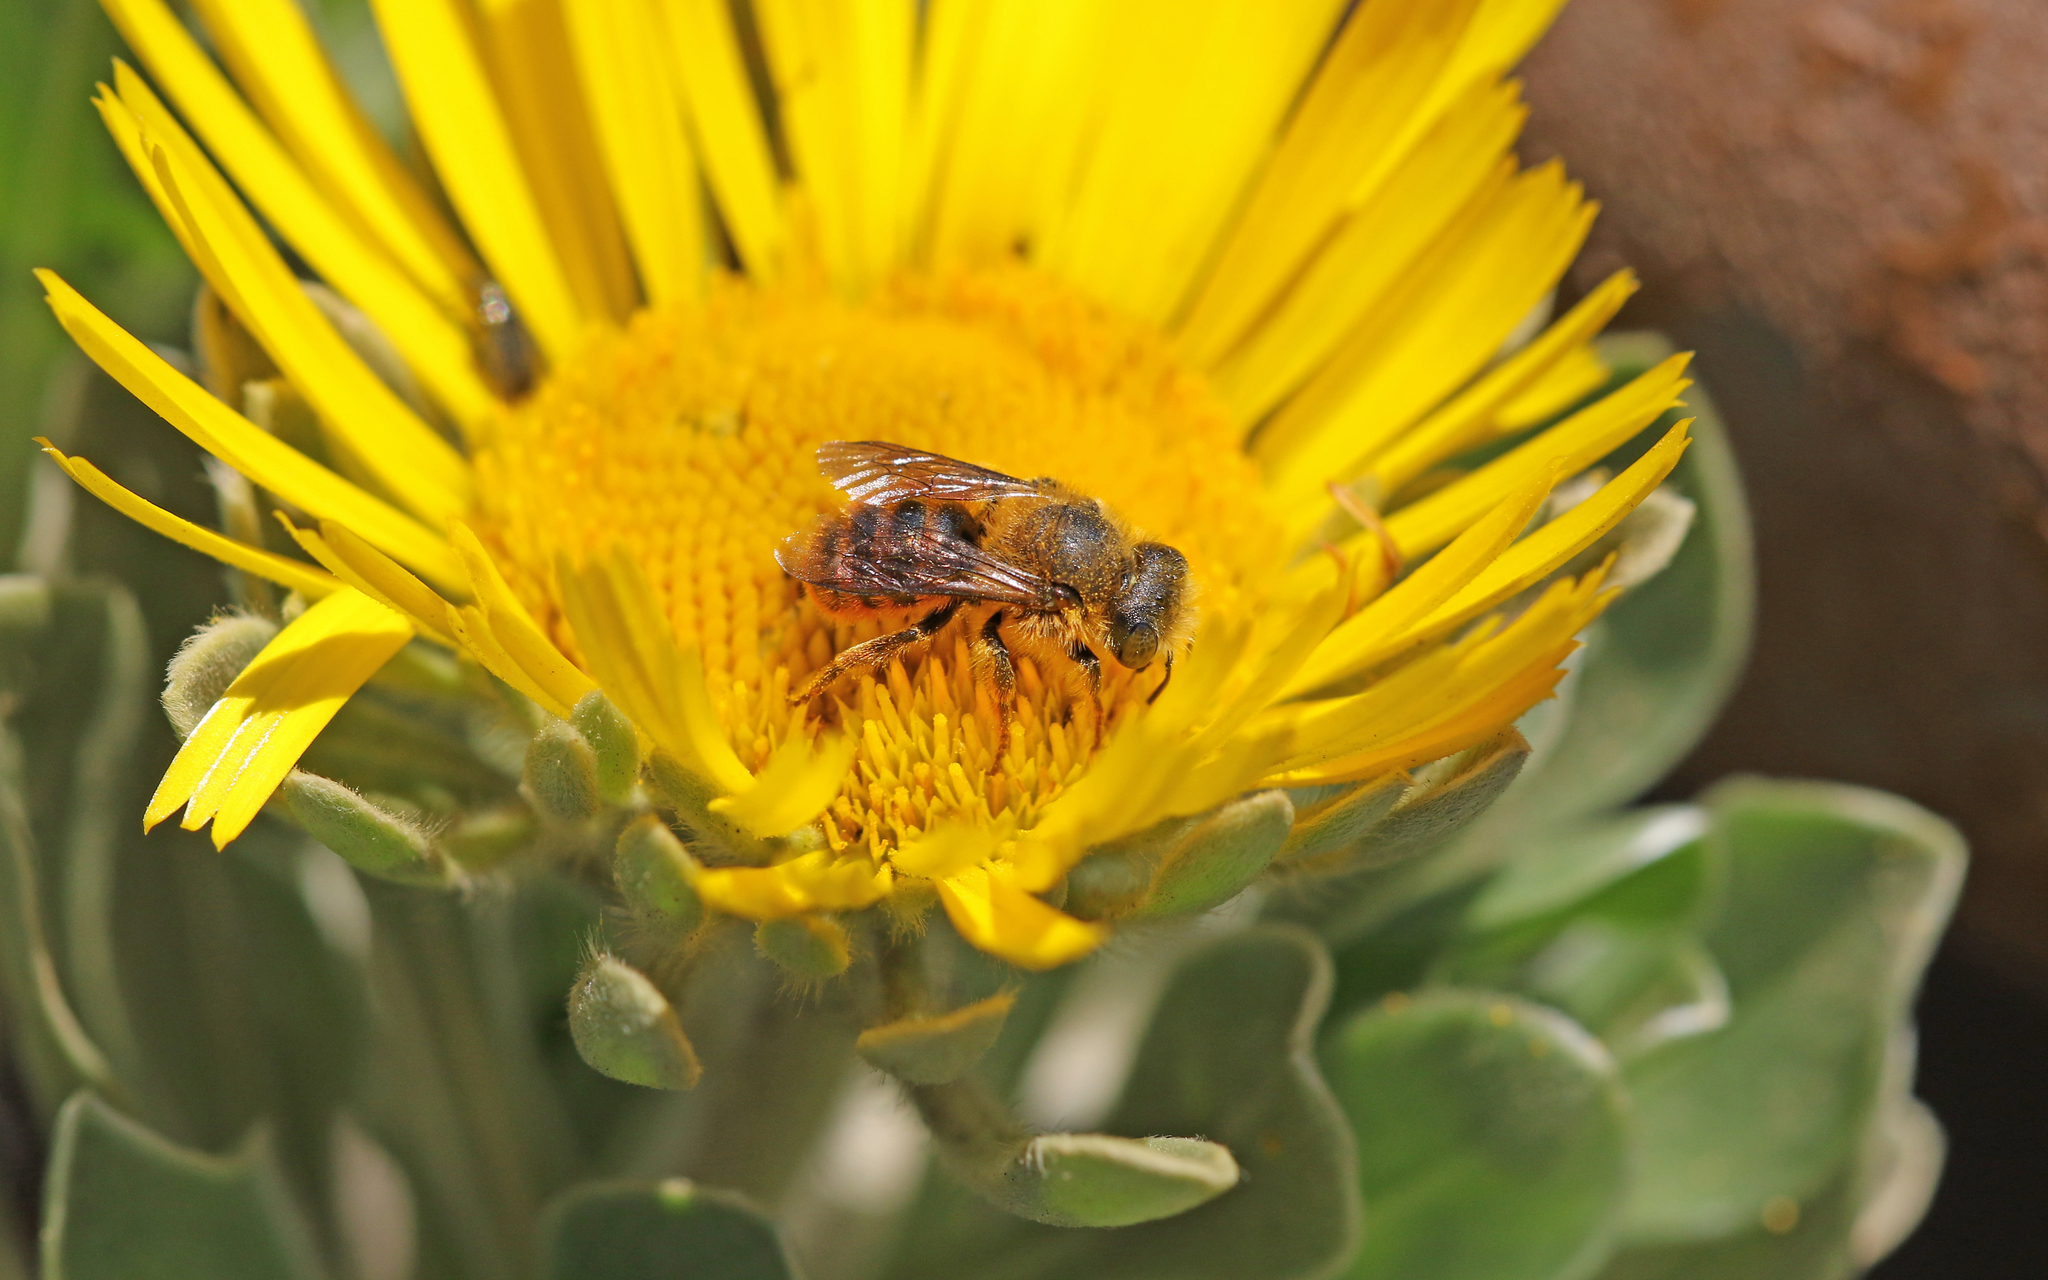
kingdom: Animalia
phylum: Arthropoda
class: Insecta
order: Hymenoptera
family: Megachilidae
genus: Osmia
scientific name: Osmia cinnabarina
